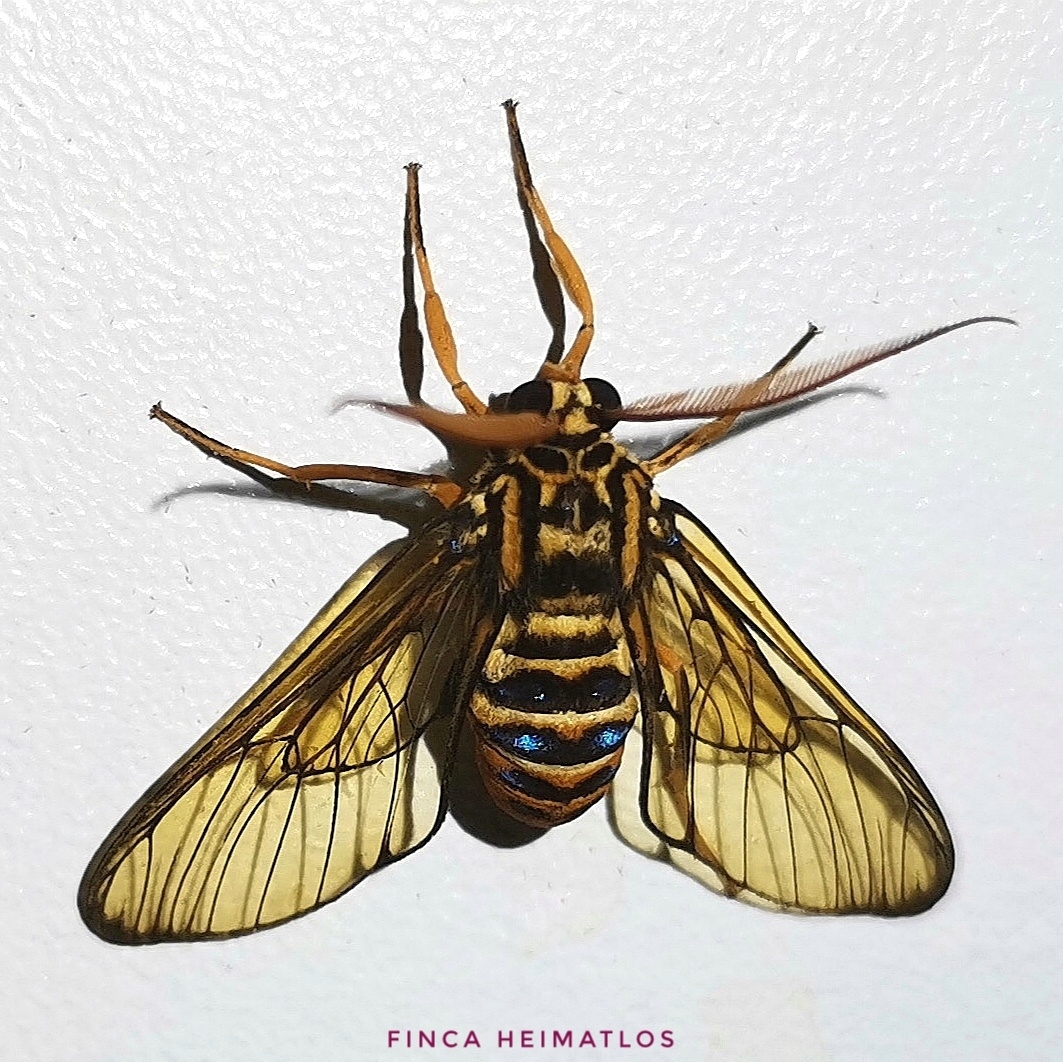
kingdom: Animalia
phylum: Arthropoda
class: Insecta
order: Lepidoptera
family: Erebidae
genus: Gymnelia
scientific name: Gymnelia villia
